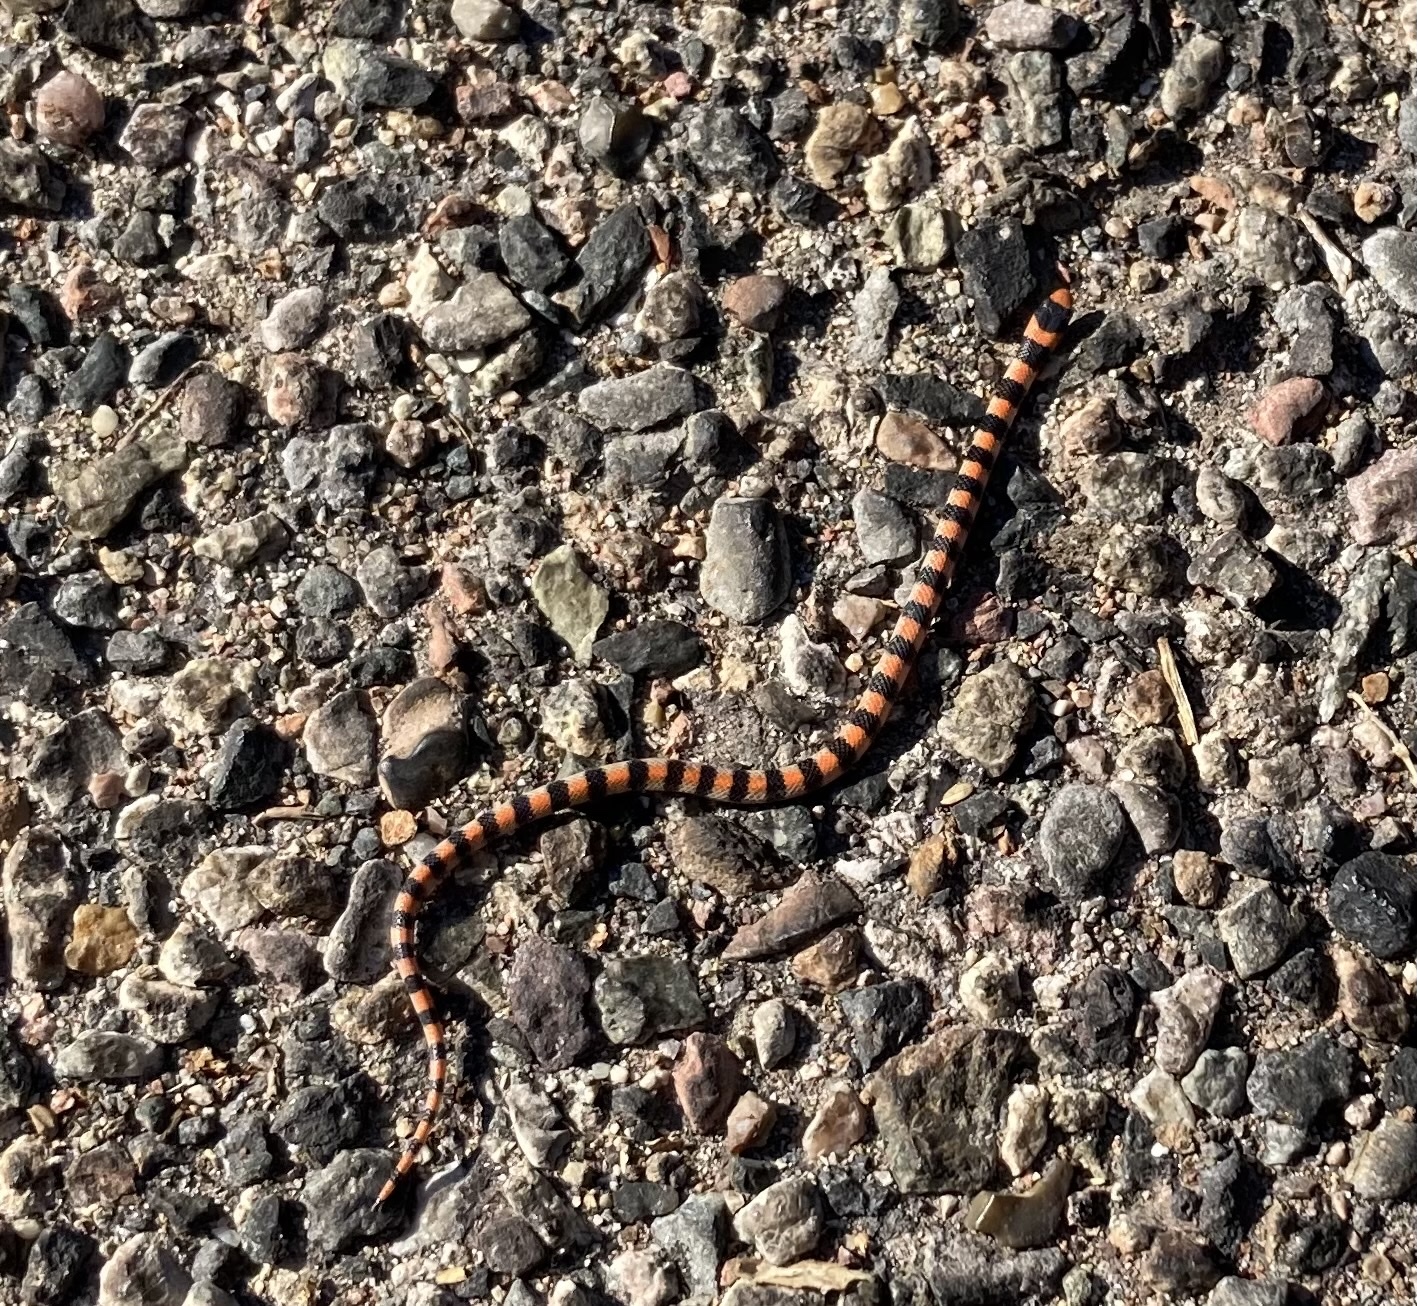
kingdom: Animalia
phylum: Chordata
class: Squamata
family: Colubridae
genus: Sonora
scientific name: Sonora semiannulata
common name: Ground snake
